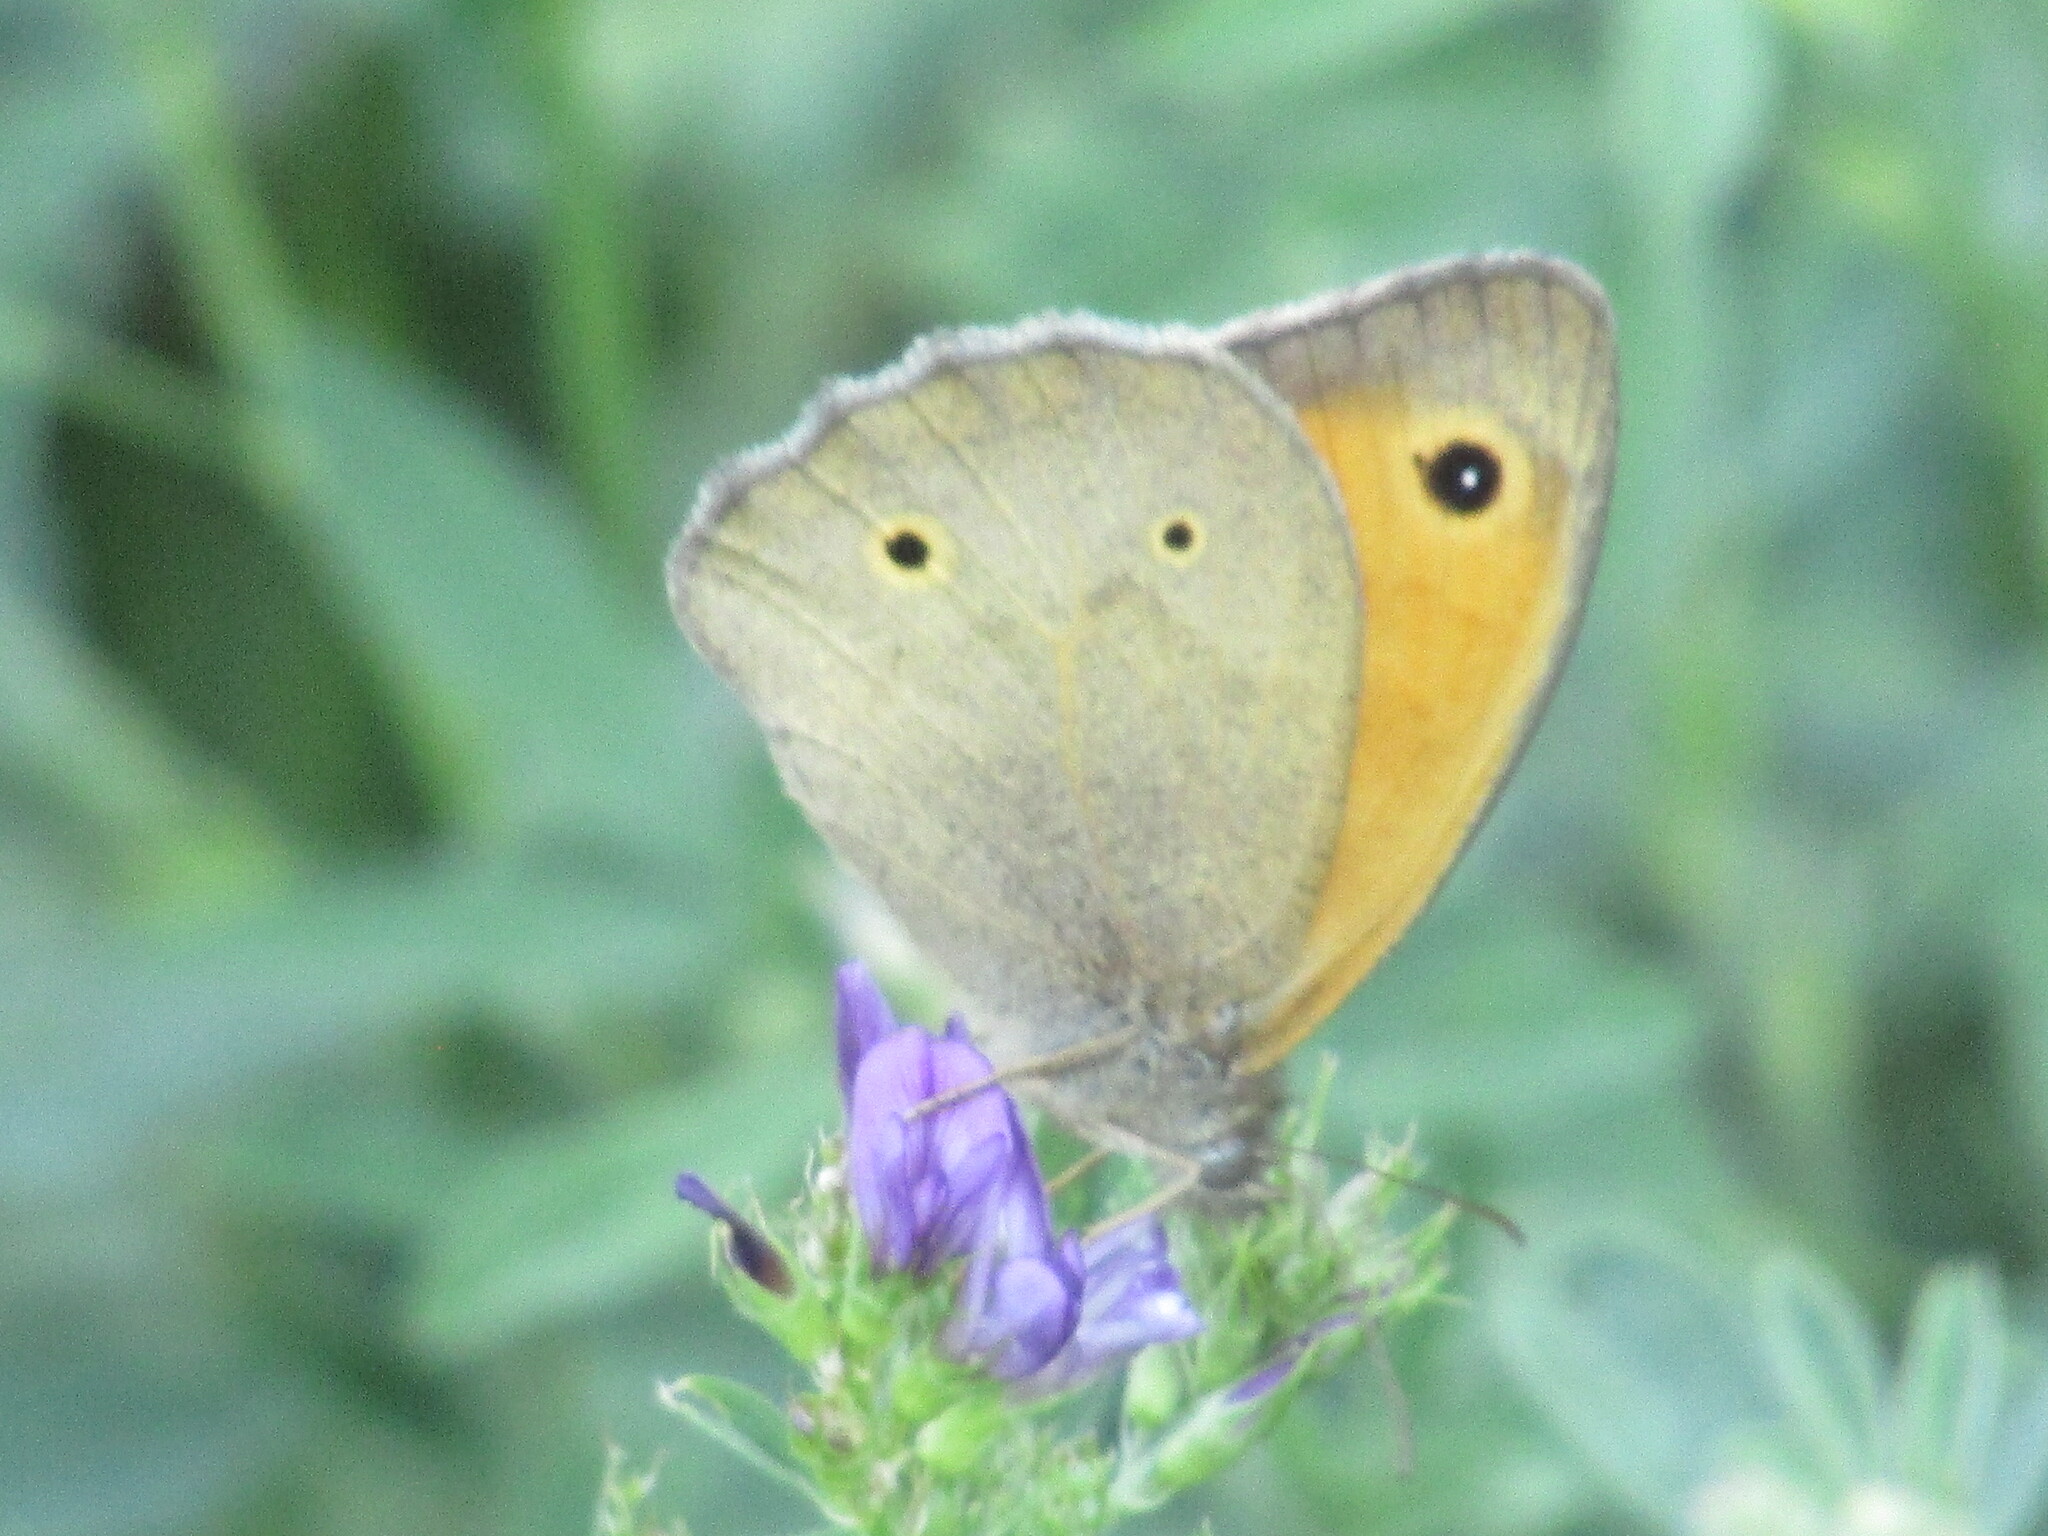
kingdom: Animalia
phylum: Arthropoda
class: Insecta
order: Lepidoptera
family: Nymphalidae
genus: Maniola
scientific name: Maniola jurtina
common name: Meadow brown
